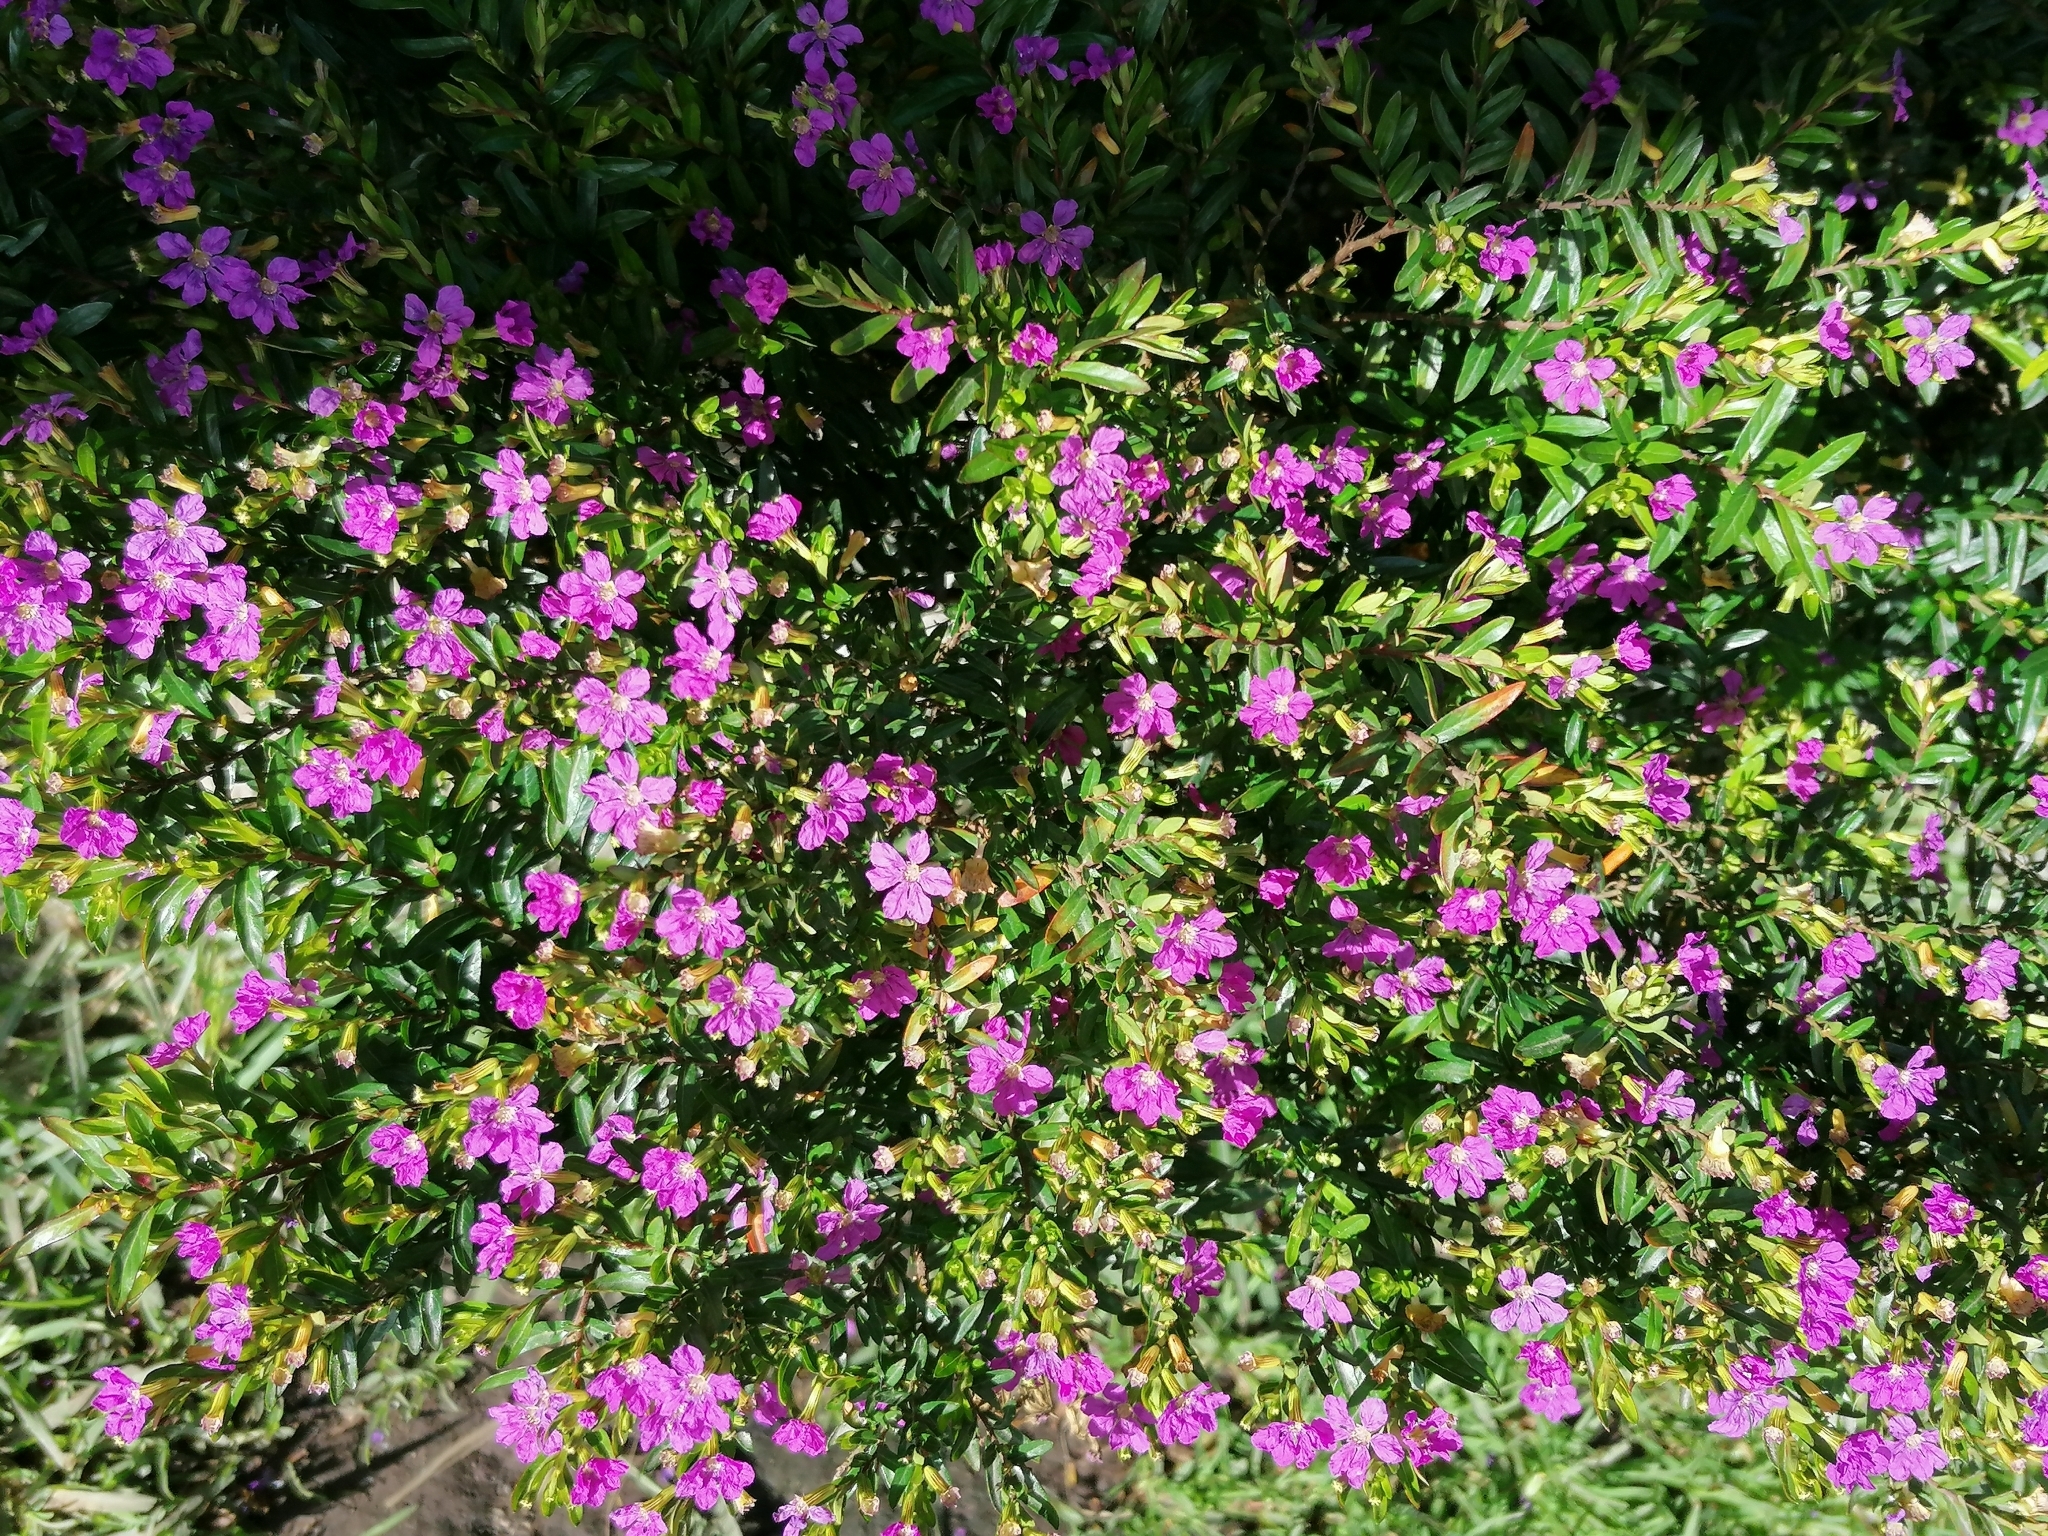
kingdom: Plantae
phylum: Tracheophyta
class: Magnoliopsida
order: Myrtales
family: Lythraceae
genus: Cuphea
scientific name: Cuphea hyssopifolia
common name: False heather
